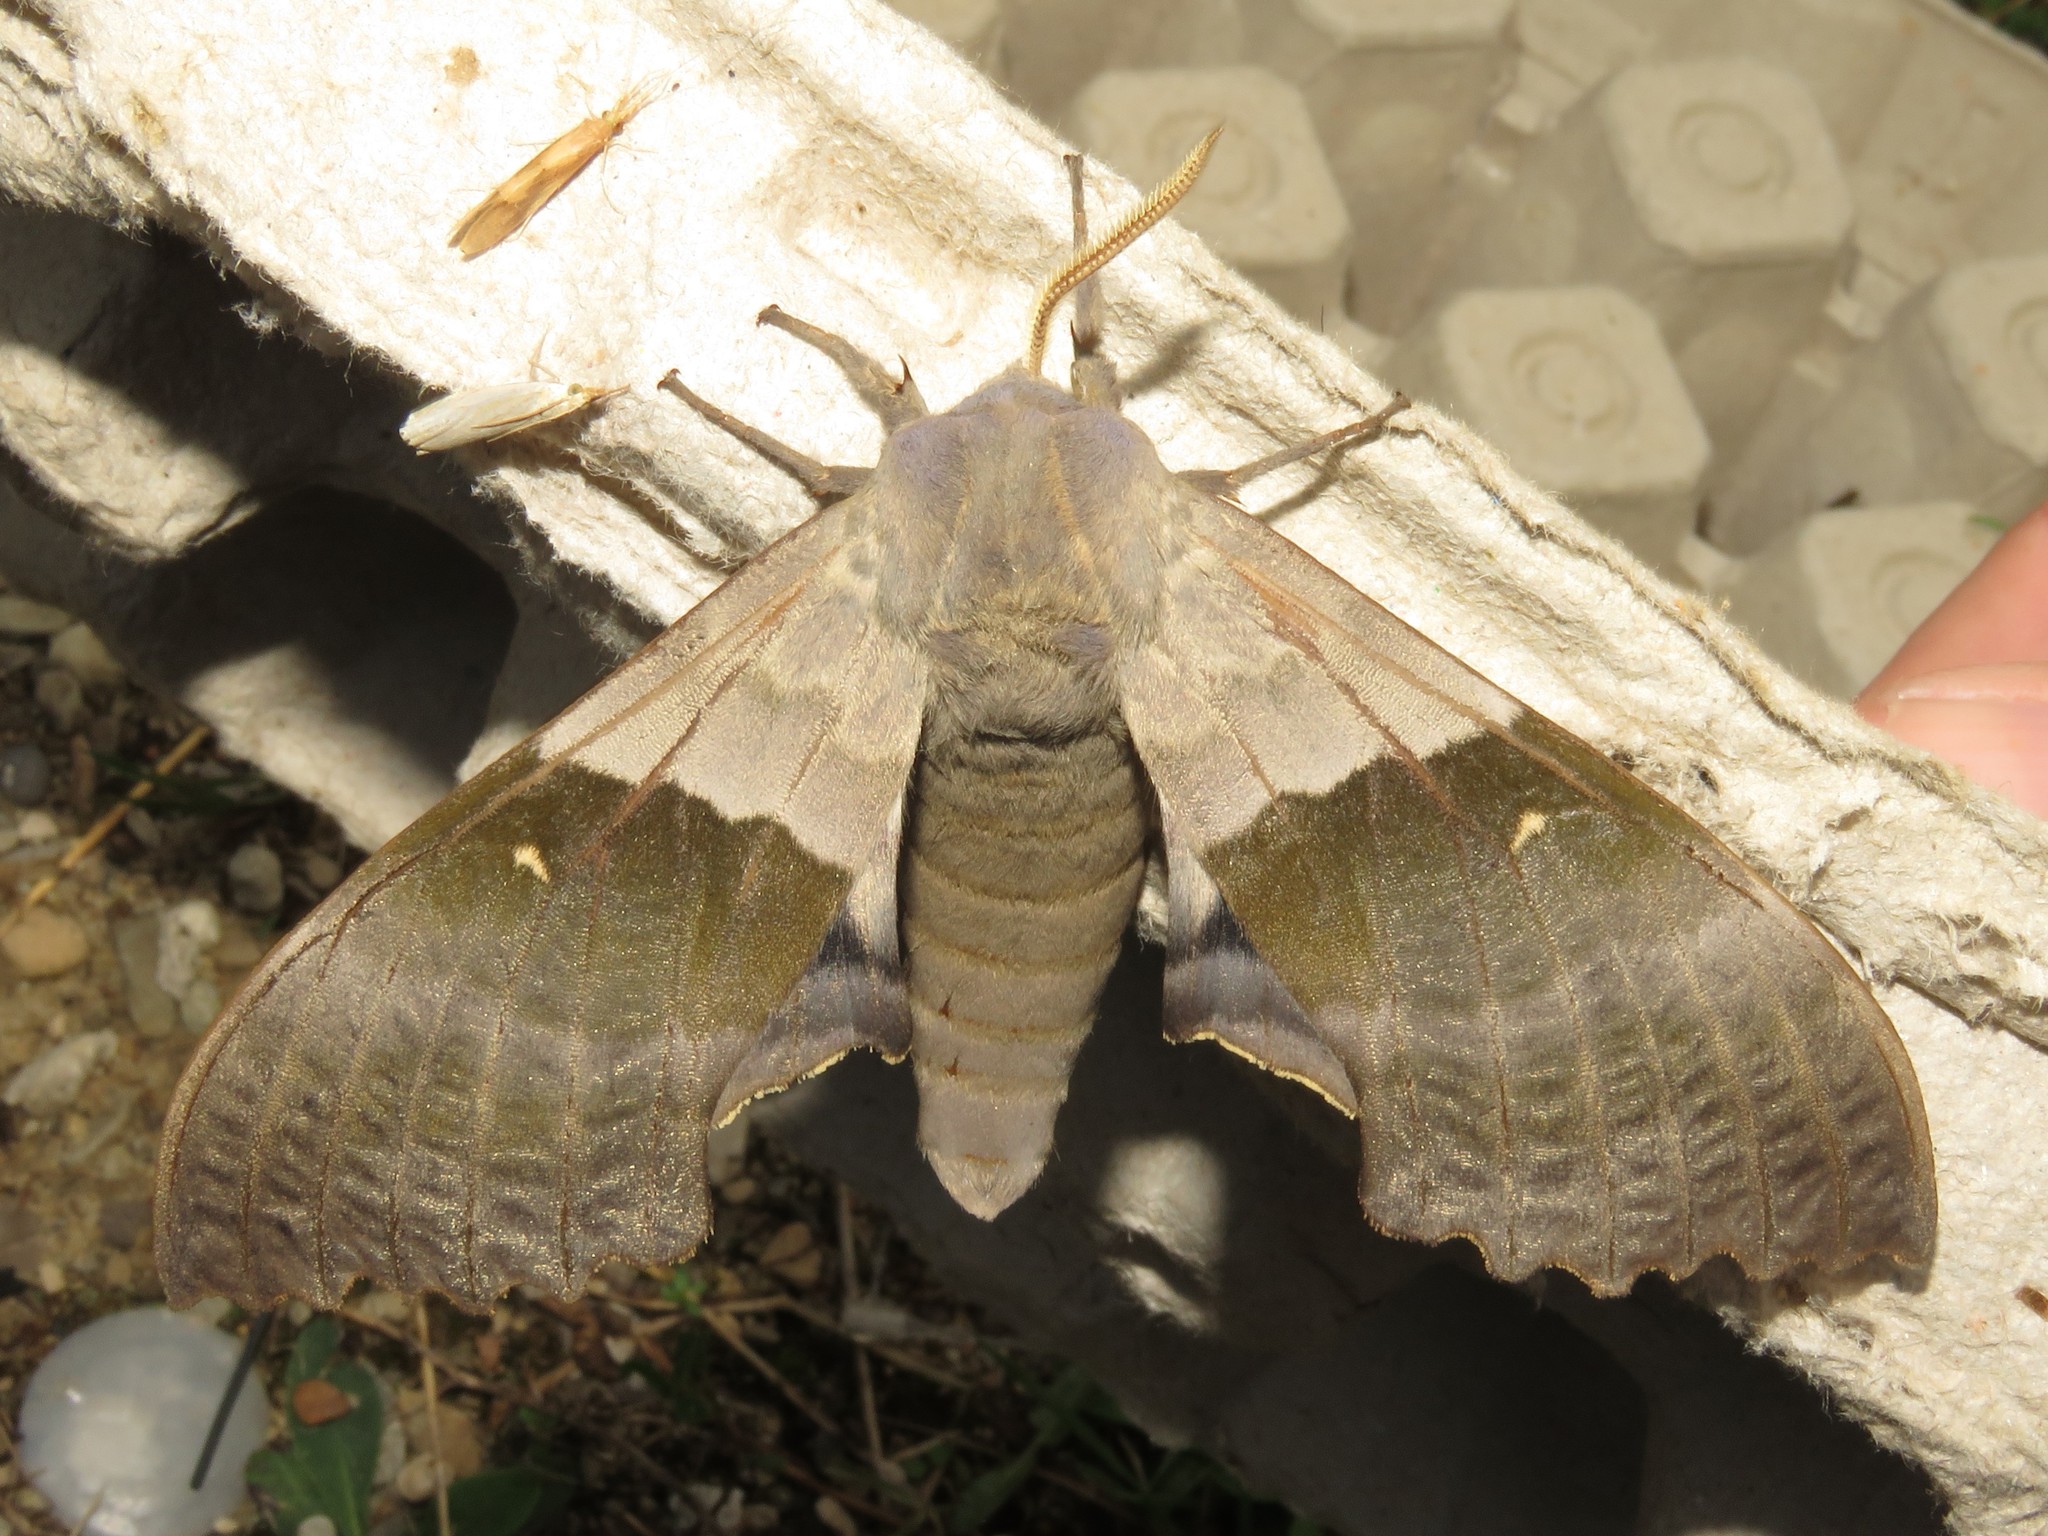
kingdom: Animalia
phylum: Arthropoda
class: Insecta
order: Lepidoptera
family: Sphingidae
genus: Pachysphinx
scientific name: Pachysphinx modesta
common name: Big poplar sphinx
